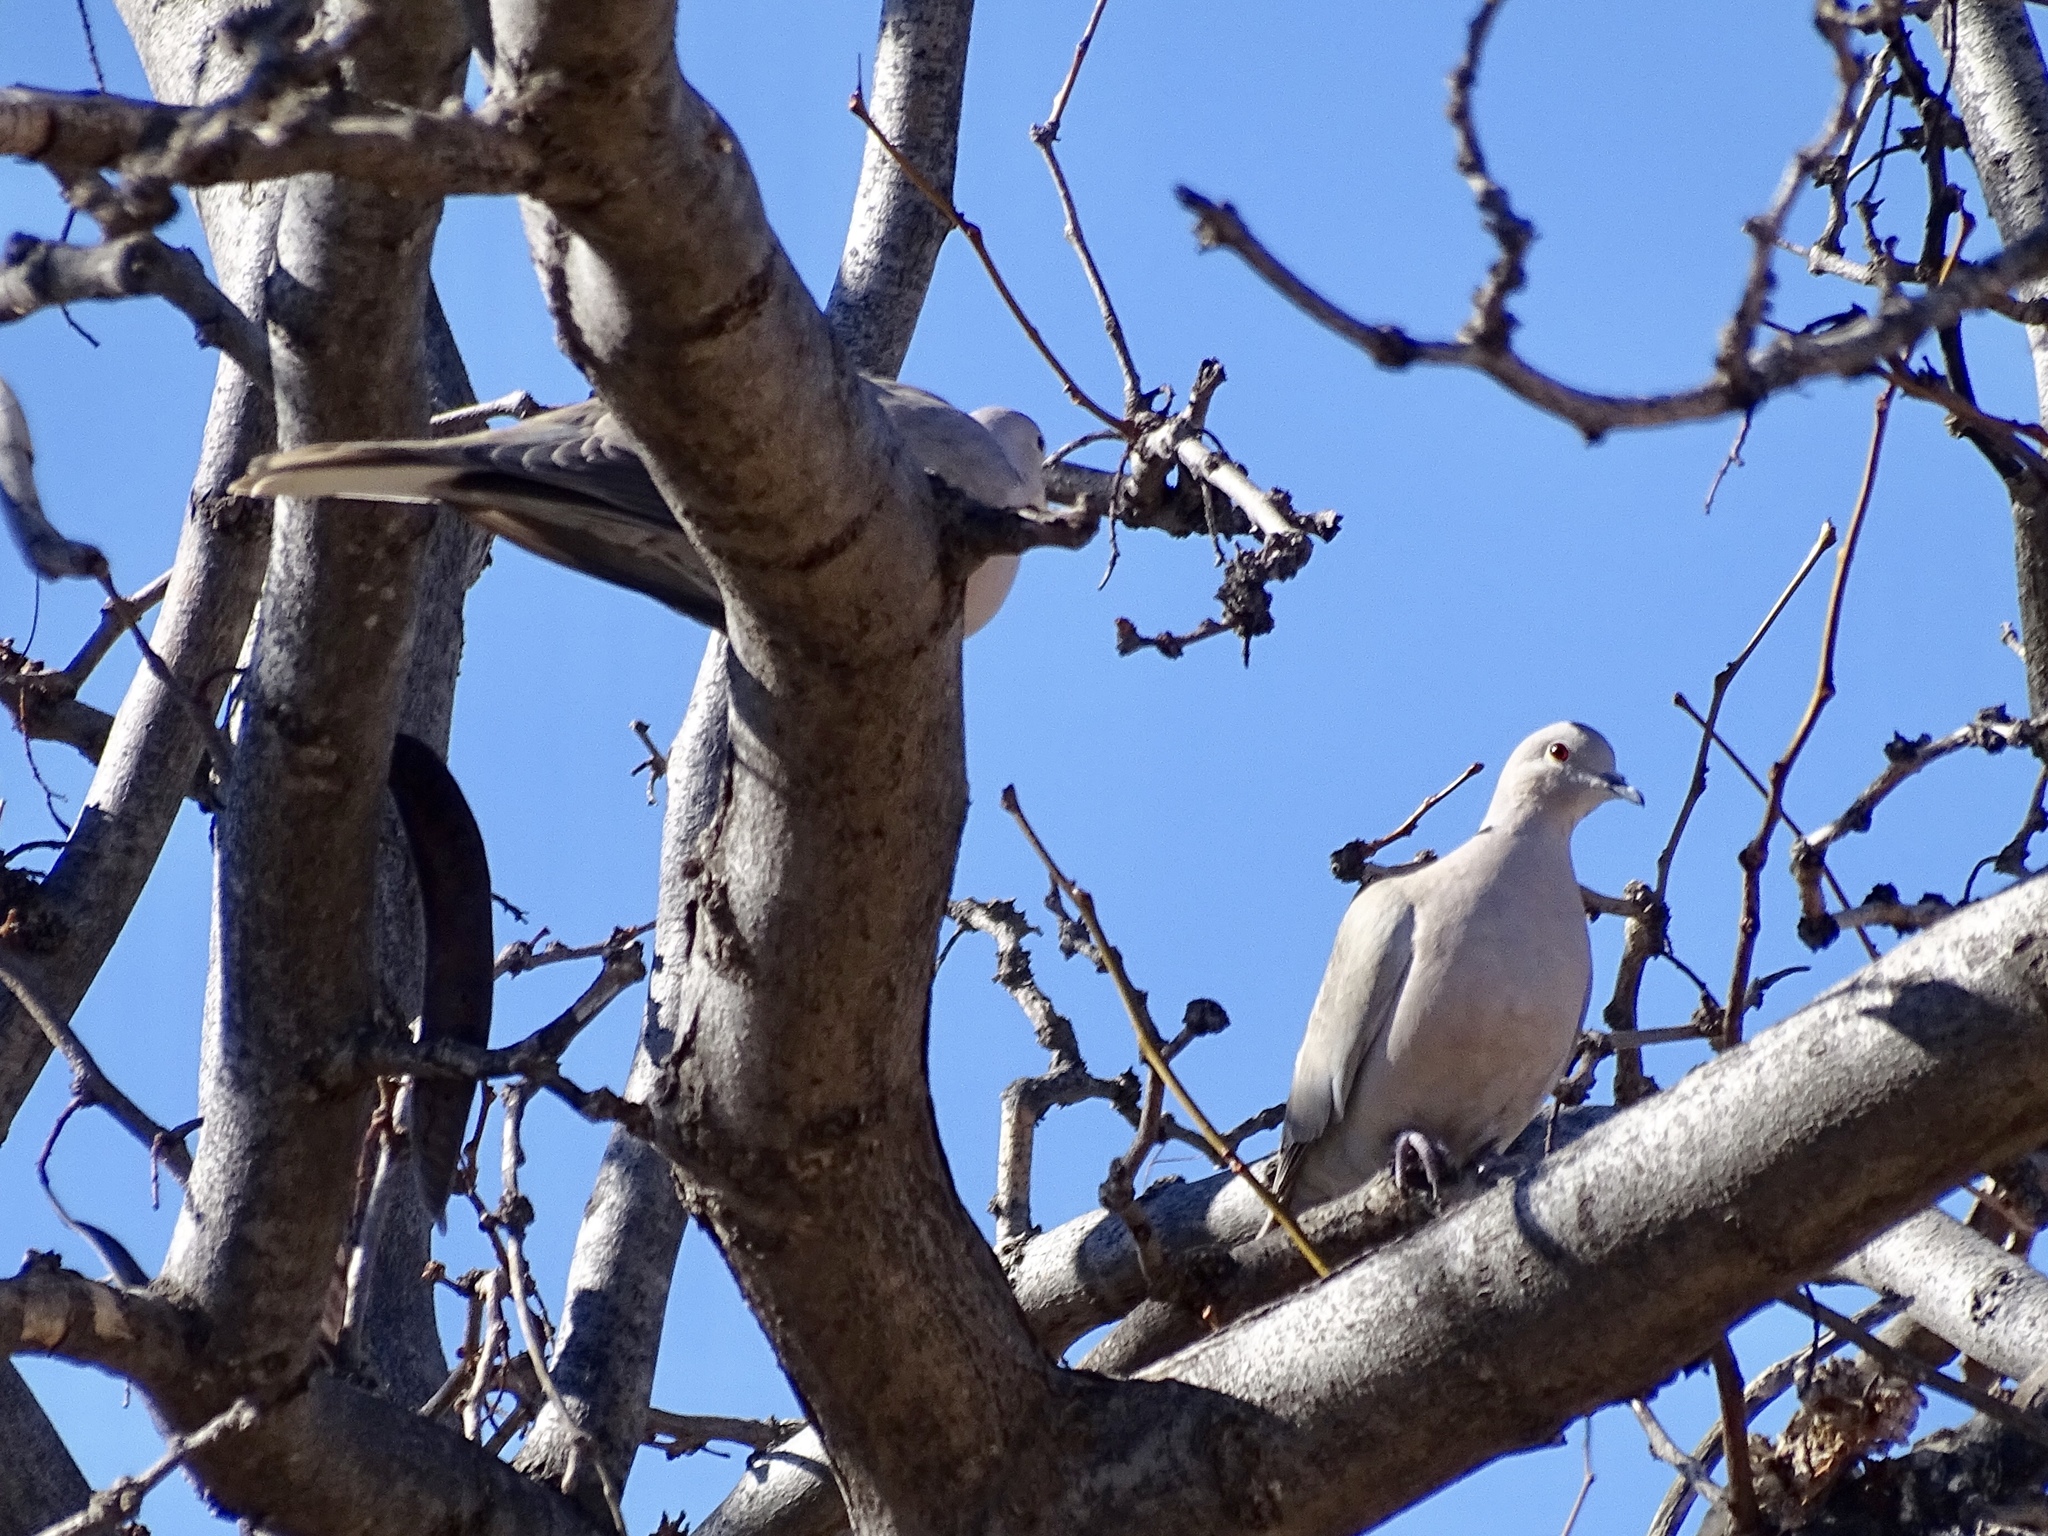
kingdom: Animalia
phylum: Chordata
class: Aves
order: Columbiformes
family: Columbidae
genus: Streptopelia
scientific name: Streptopelia decaocto
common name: Eurasian collared dove
